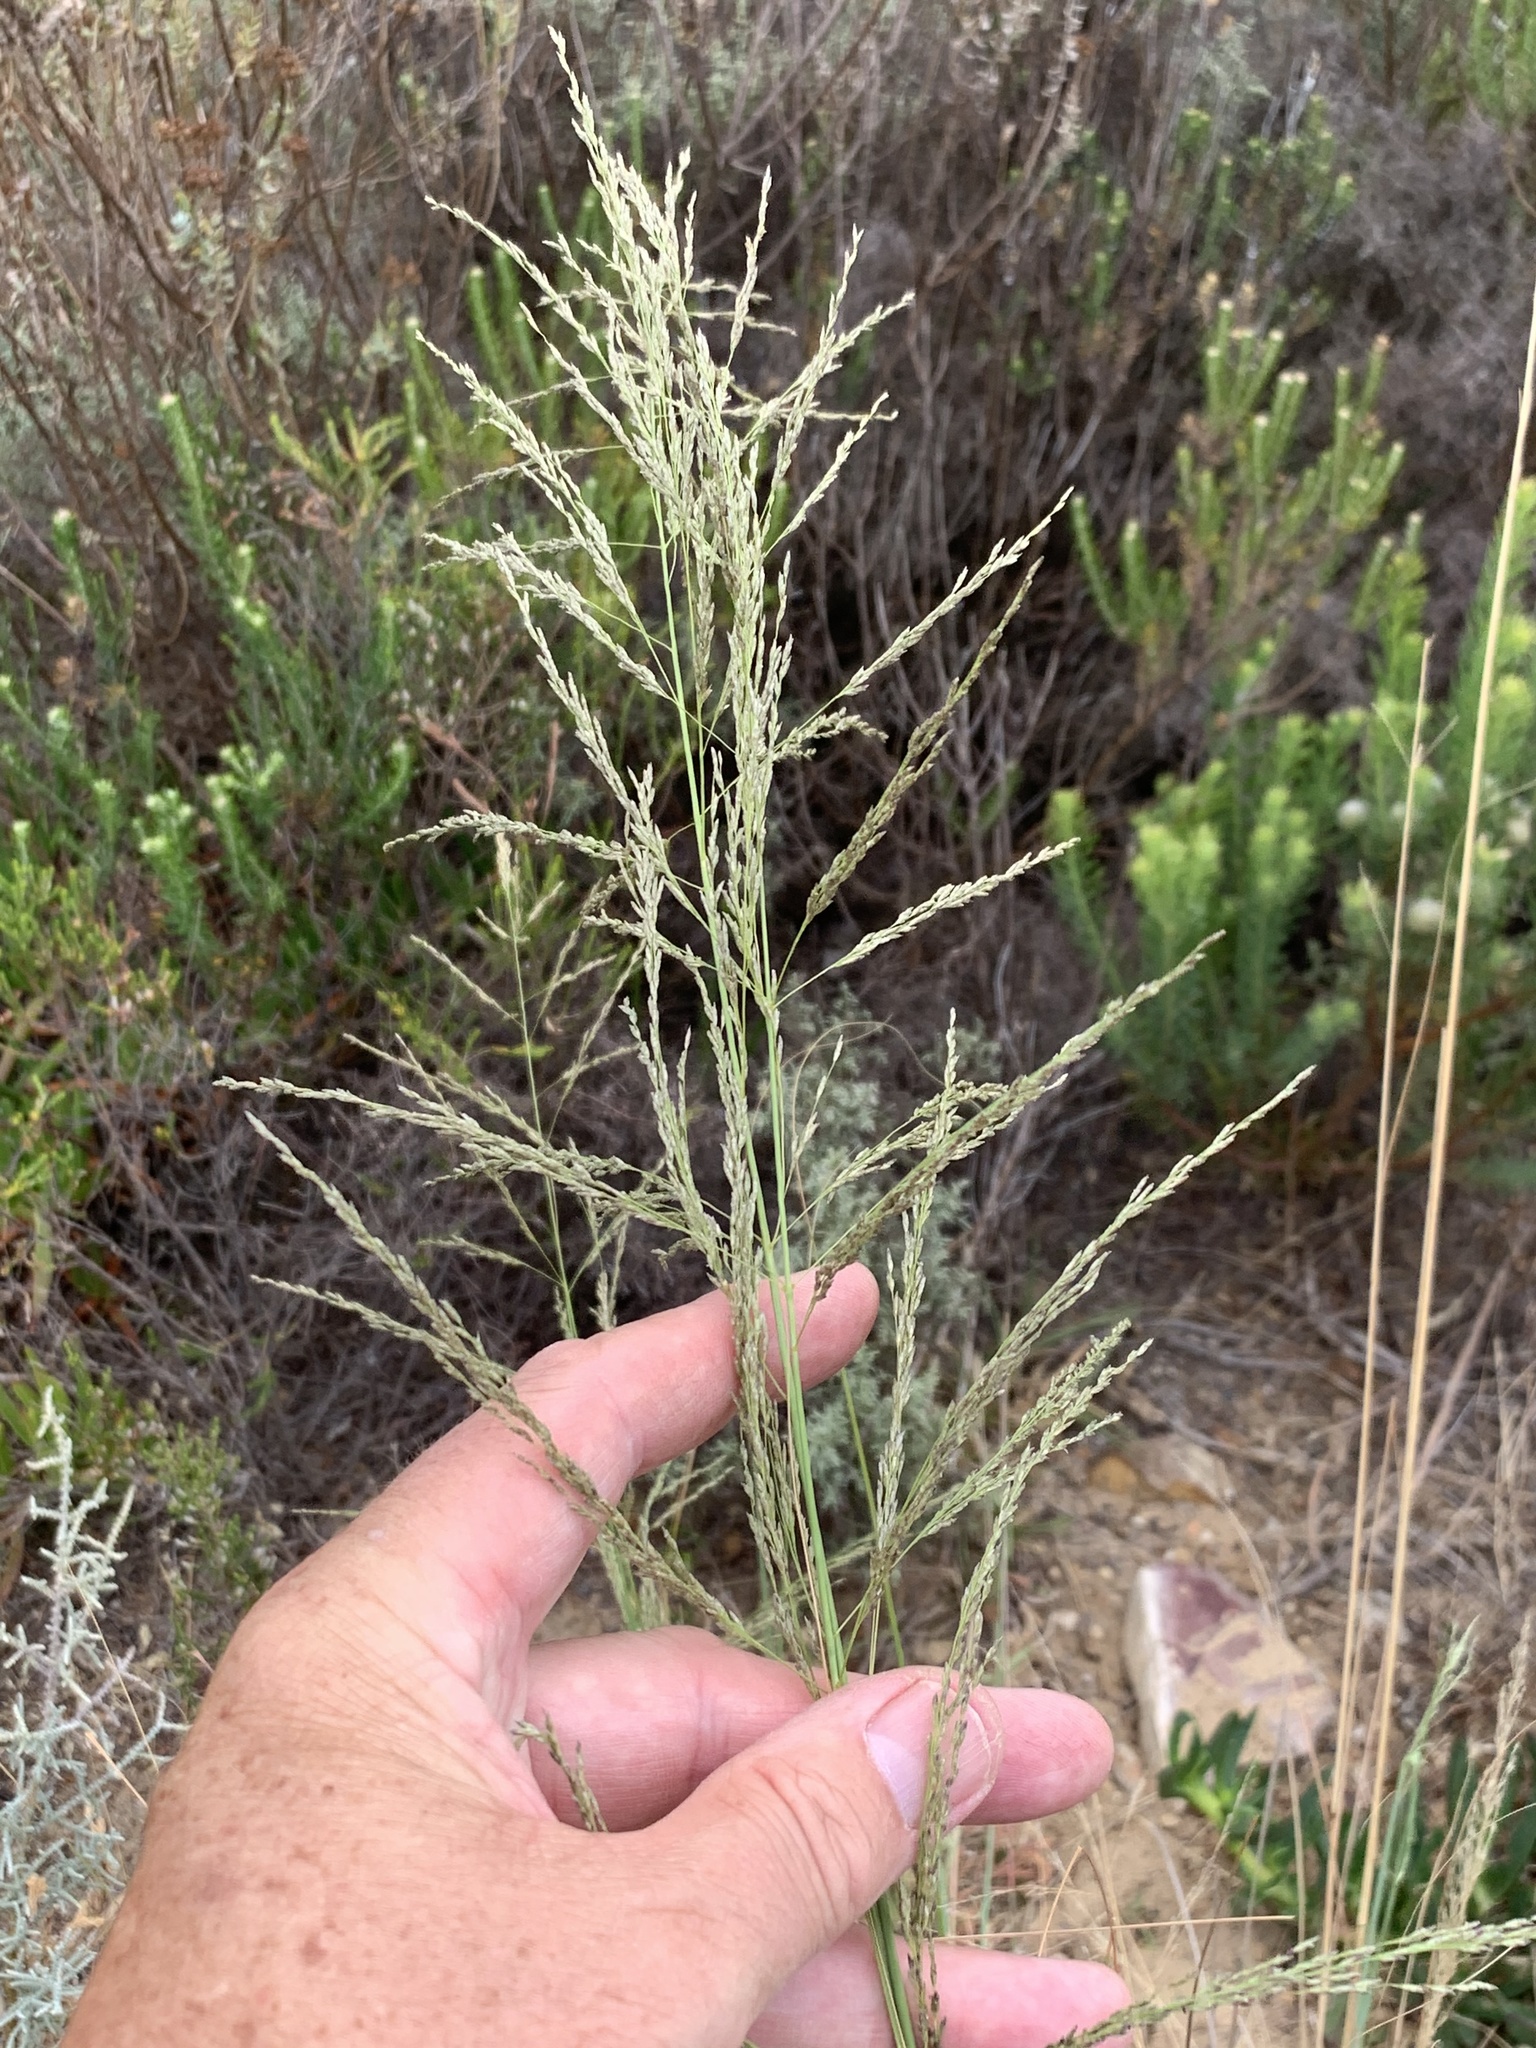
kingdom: Plantae
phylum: Tracheophyta
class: Liliopsida
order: Poales
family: Poaceae
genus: Eragrostis
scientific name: Eragrostis curvula
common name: African love-grass
